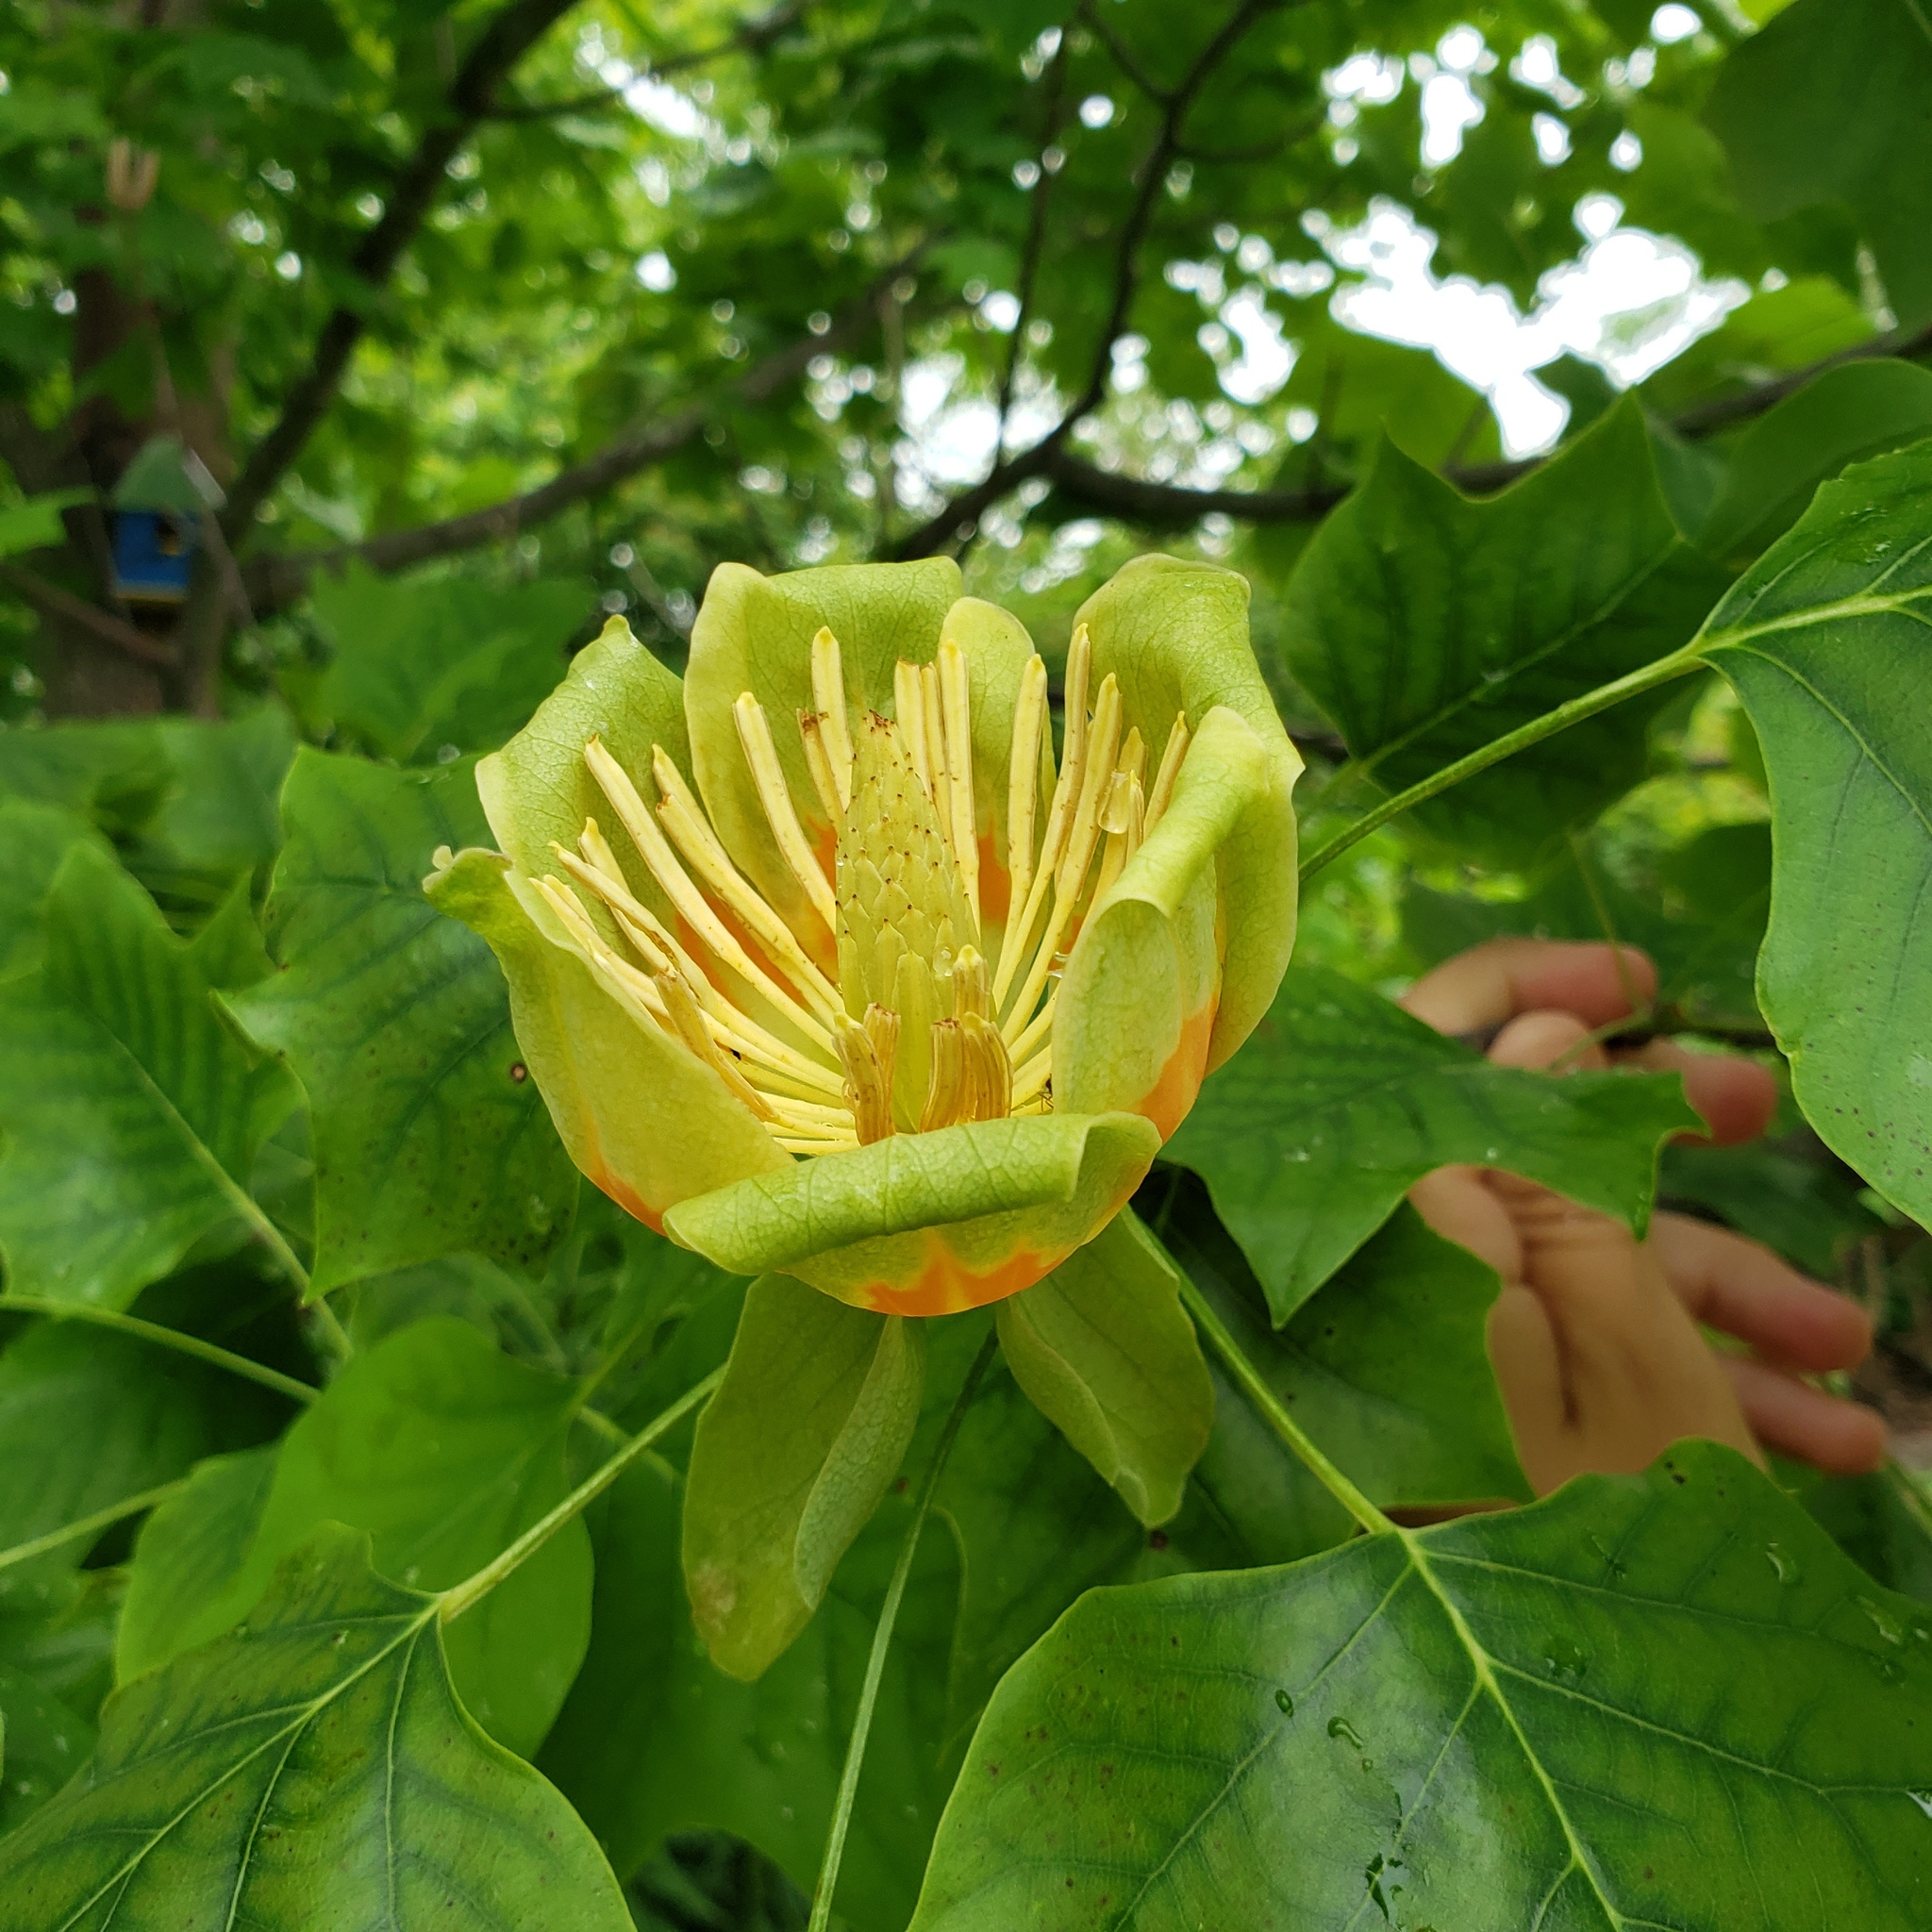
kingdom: Plantae
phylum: Tracheophyta
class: Magnoliopsida
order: Magnoliales
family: Magnoliaceae
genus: Liriodendron
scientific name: Liriodendron tulipifera
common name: Tulip tree
